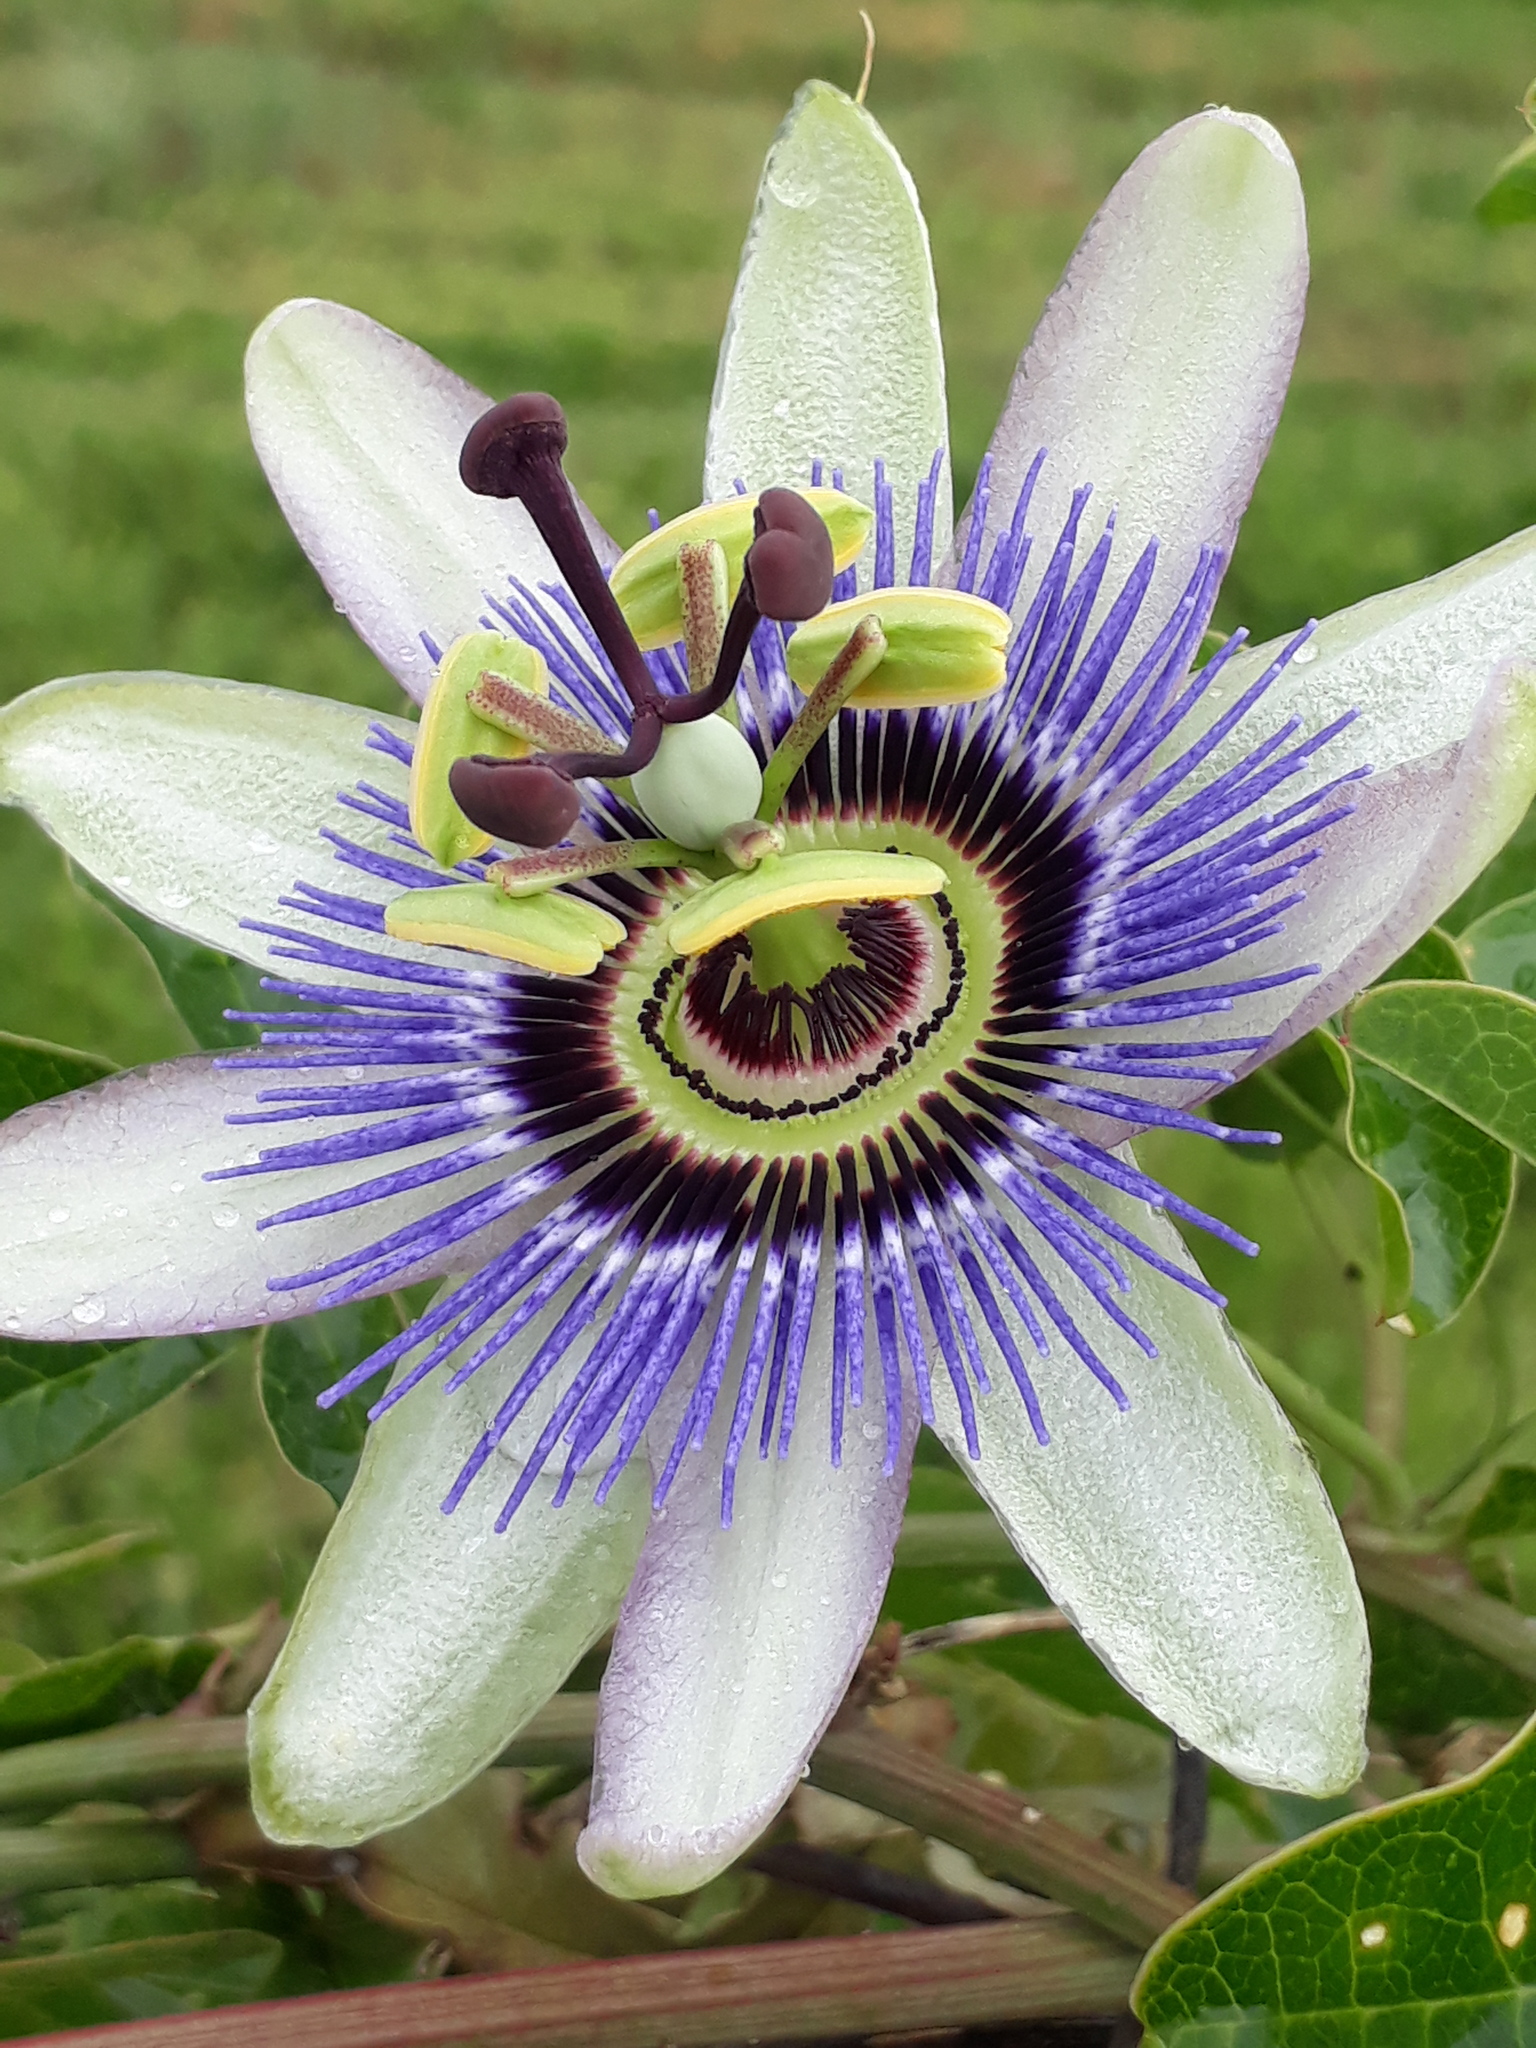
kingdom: Plantae
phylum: Tracheophyta
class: Magnoliopsida
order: Malpighiales
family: Passifloraceae
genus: Passiflora
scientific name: Passiflora caerulea
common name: Blue passionflower
